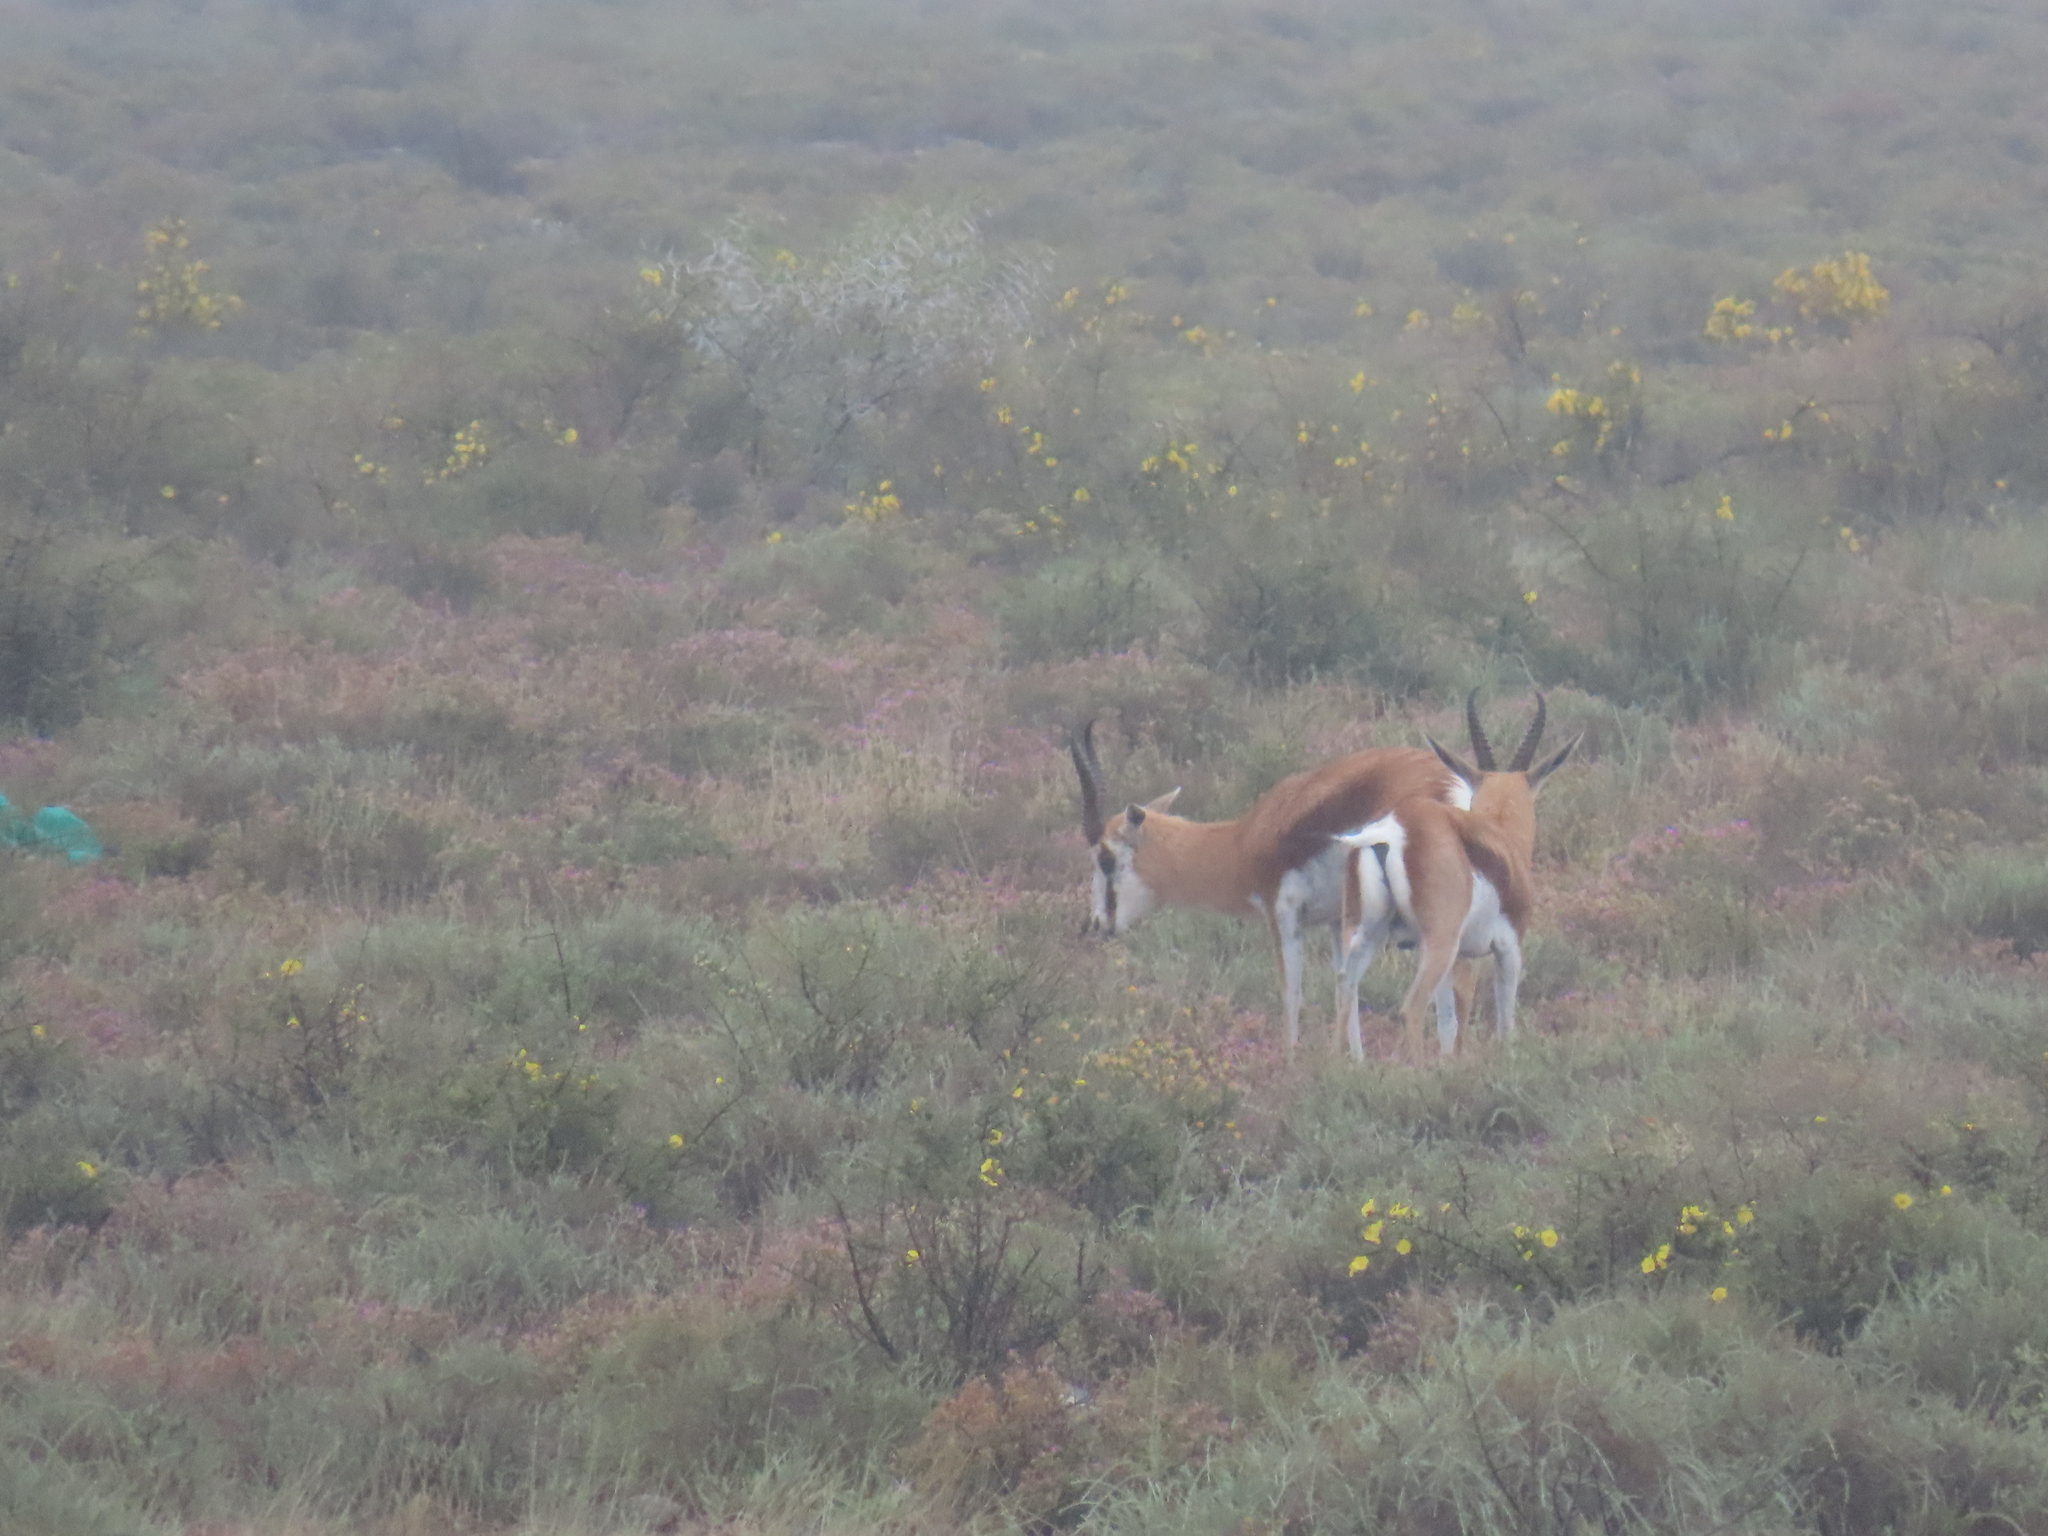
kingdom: Animalia
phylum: Chordata
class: Mammalia
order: Artiodactyla
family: Bovidae
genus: Antidorcas
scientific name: Antidorcas marsupialis
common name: Springbok
